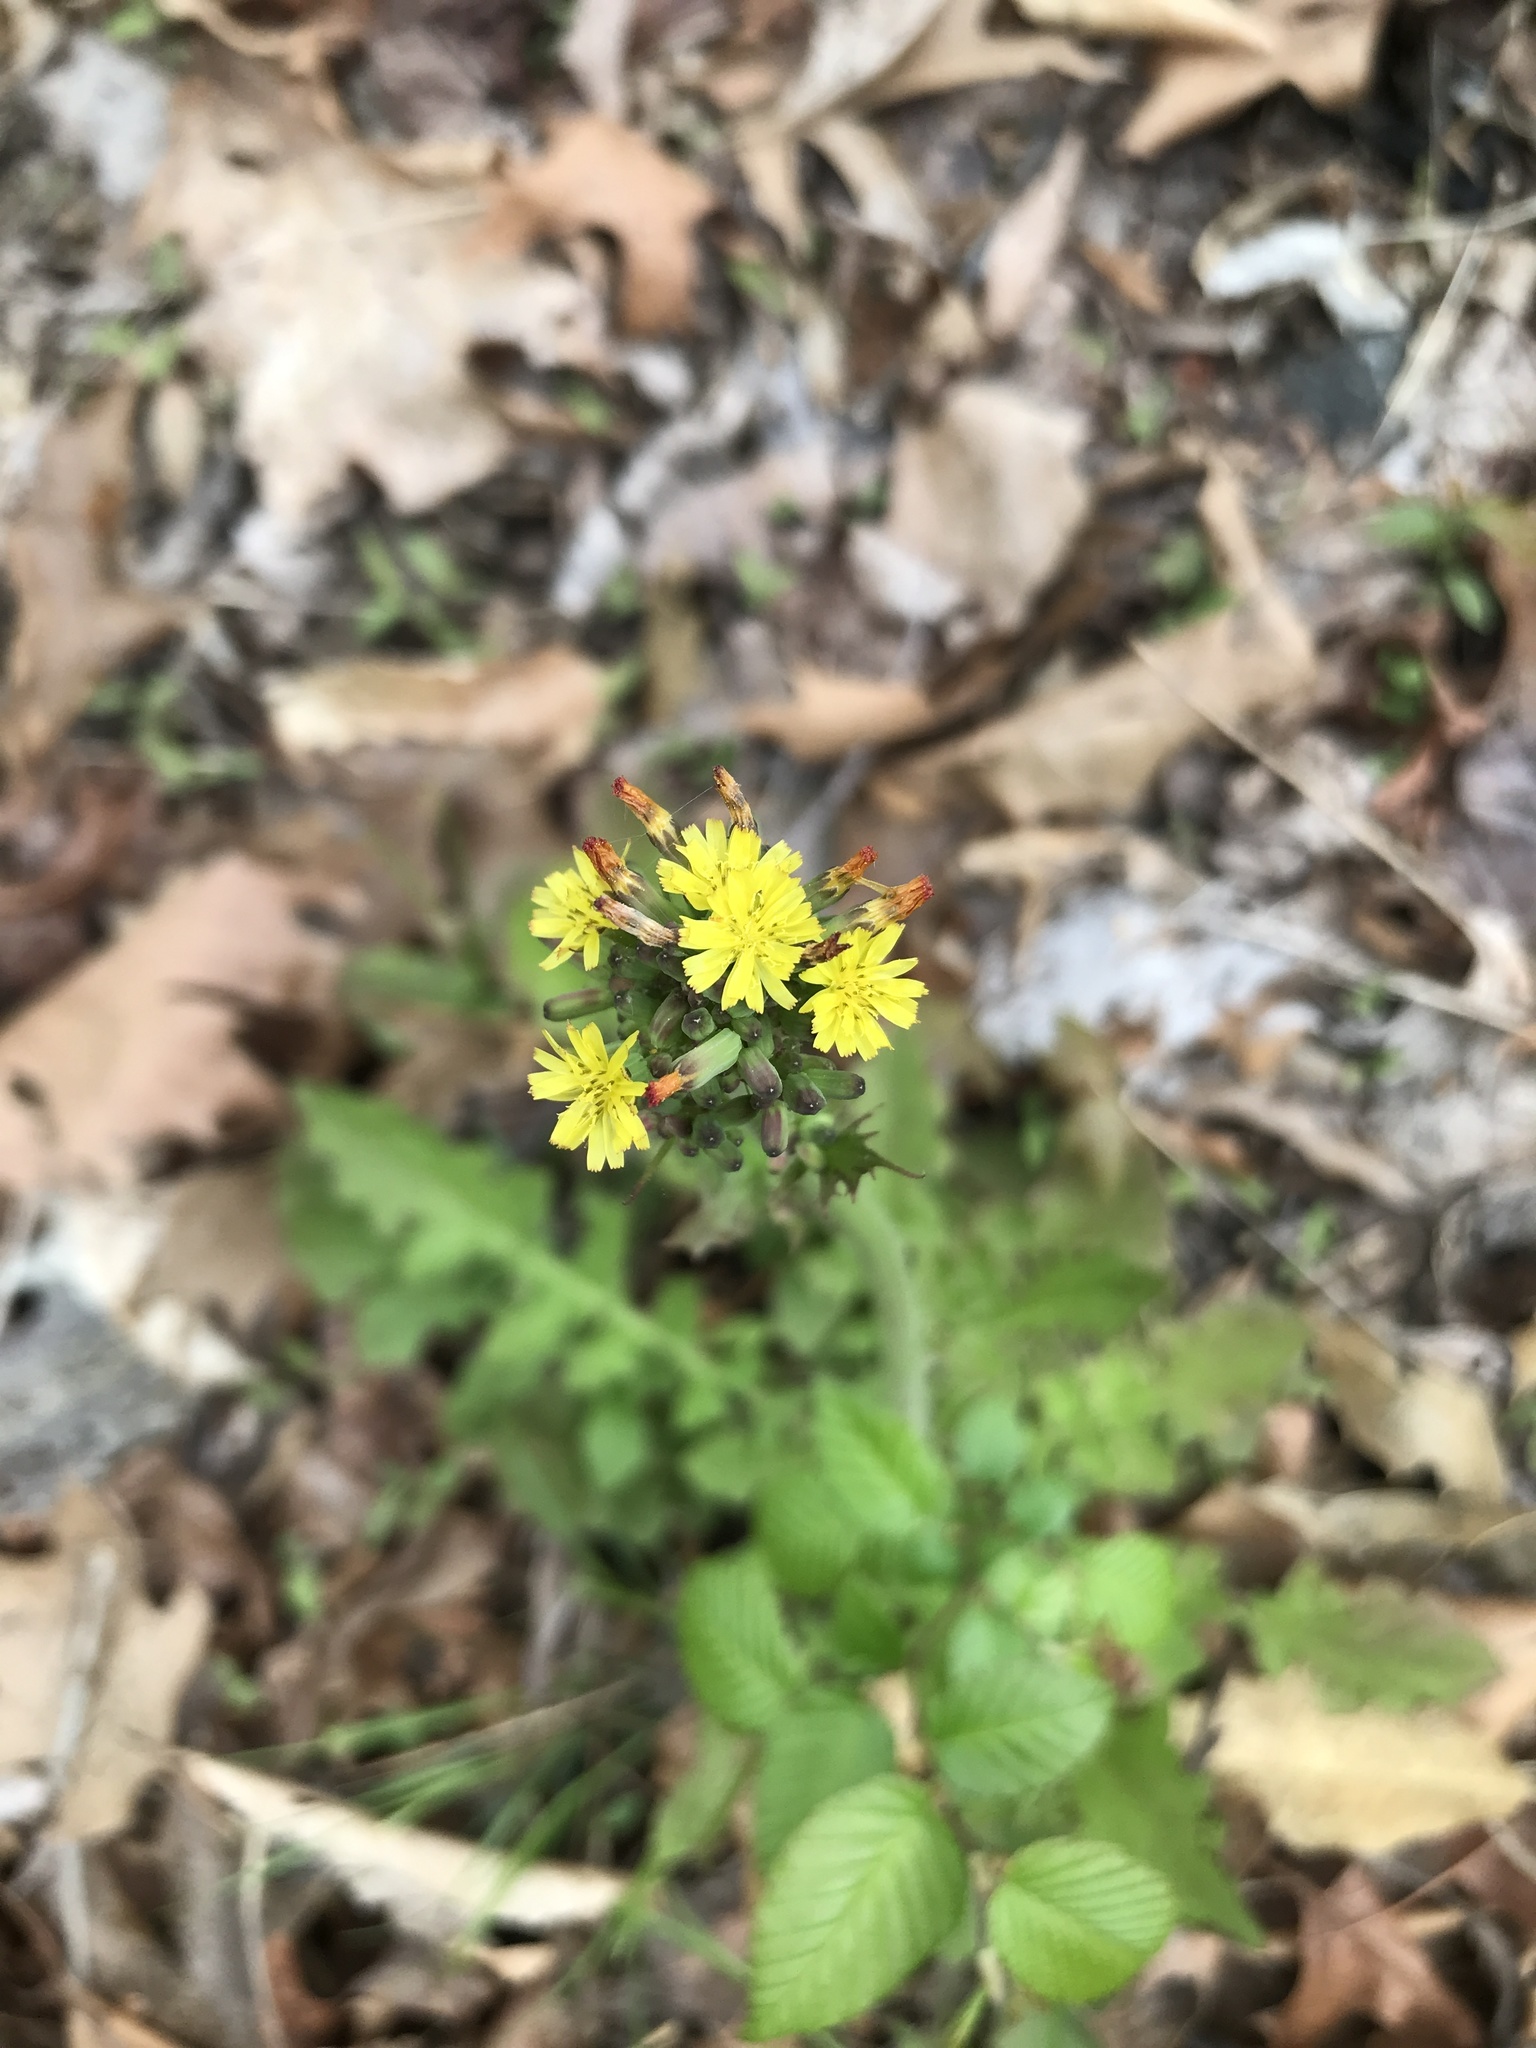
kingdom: Plantae
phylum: Tracheophyta
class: Magnoliopsida
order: Asterales
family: Asteraceae
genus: Youngia
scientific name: Youngia japonica
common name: Oriental false hawksbeard
